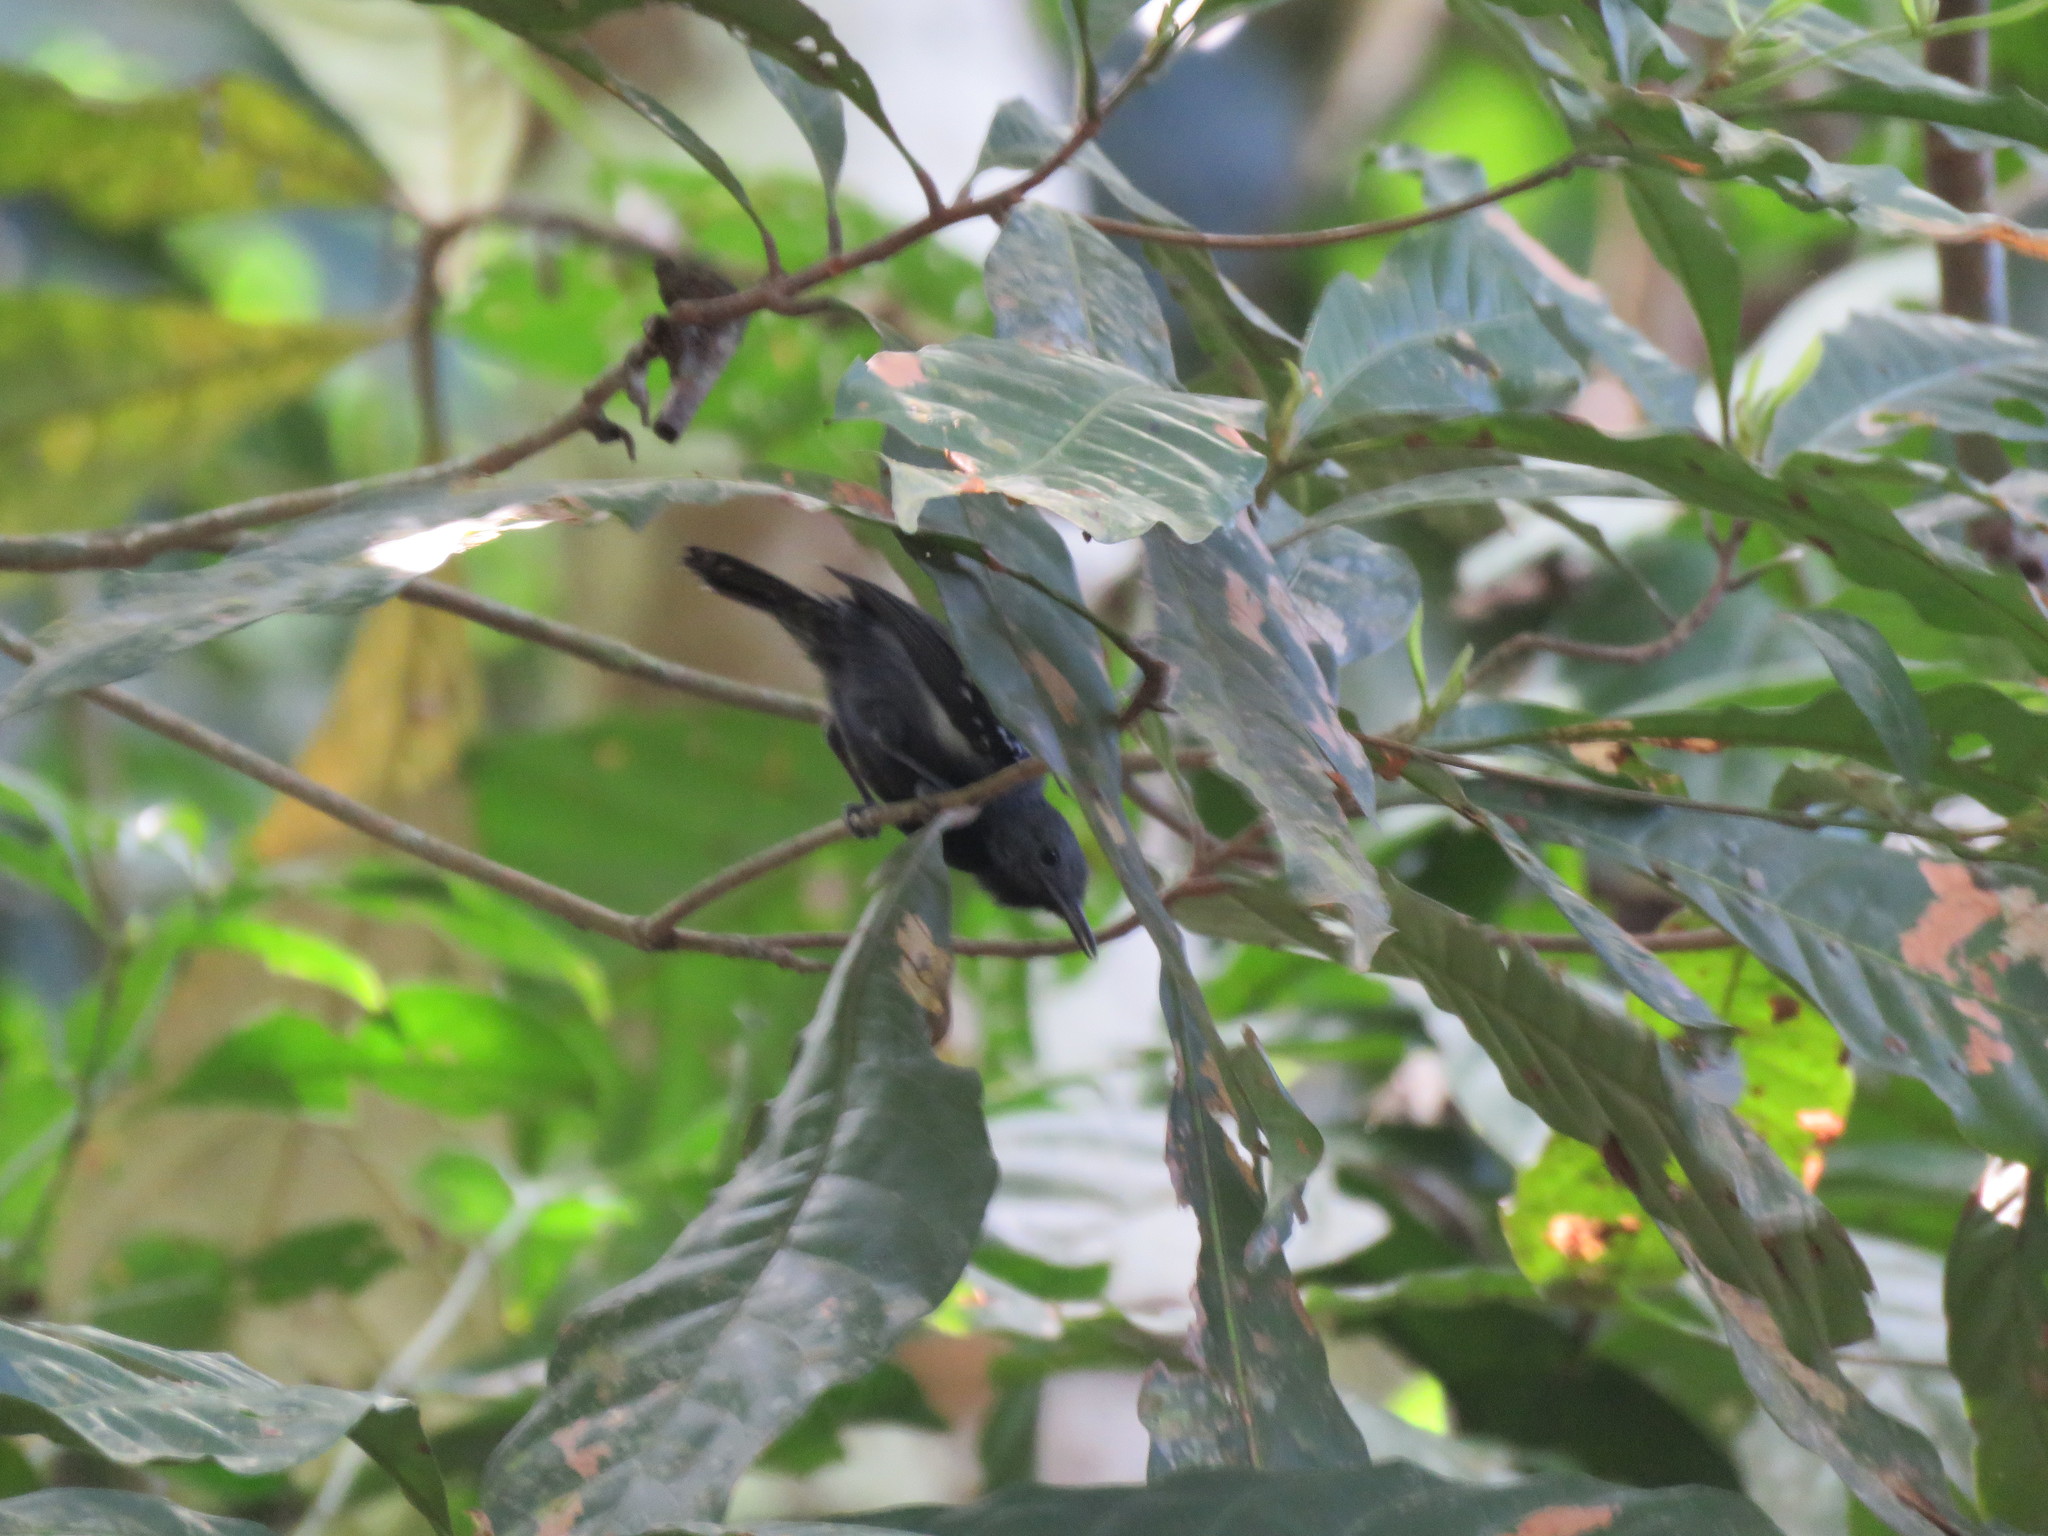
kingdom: Animalia
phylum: Chordata
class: Aves
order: Passeriformes
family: Thamnophilidae
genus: Myrmotherula
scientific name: Myrmotherula axillaris
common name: White-flanked antwren
